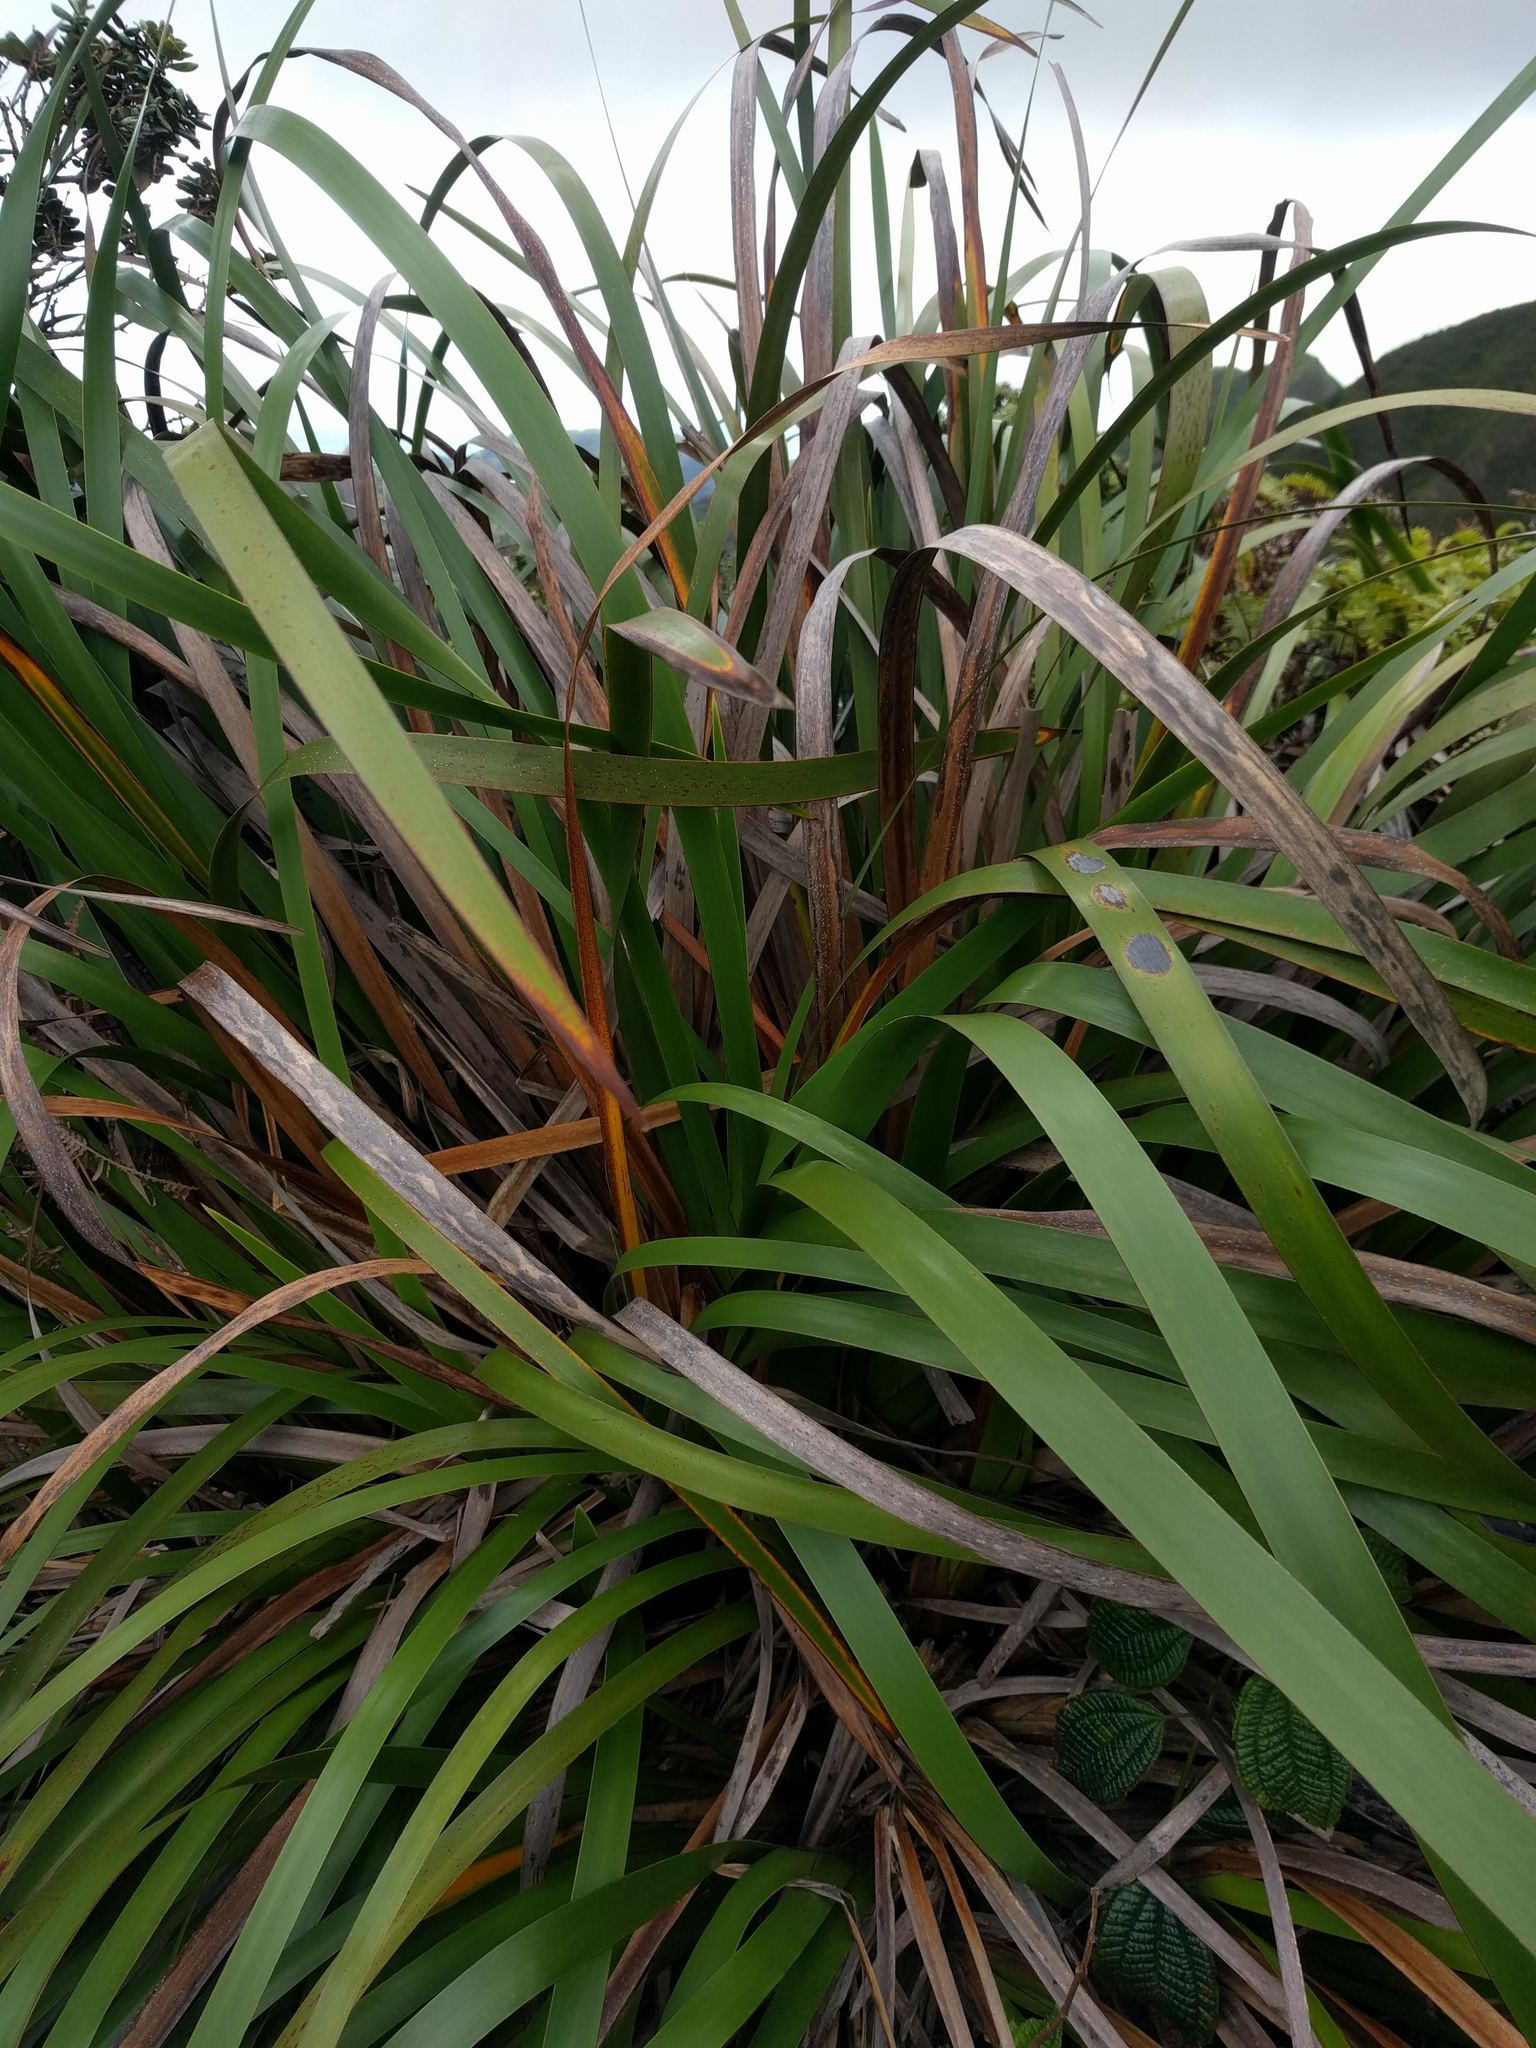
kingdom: Plantae
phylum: Tracheophyta
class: Liliopsida
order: Poales
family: Cyperaceae
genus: Machaerina
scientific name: Machaerina angustifolia
